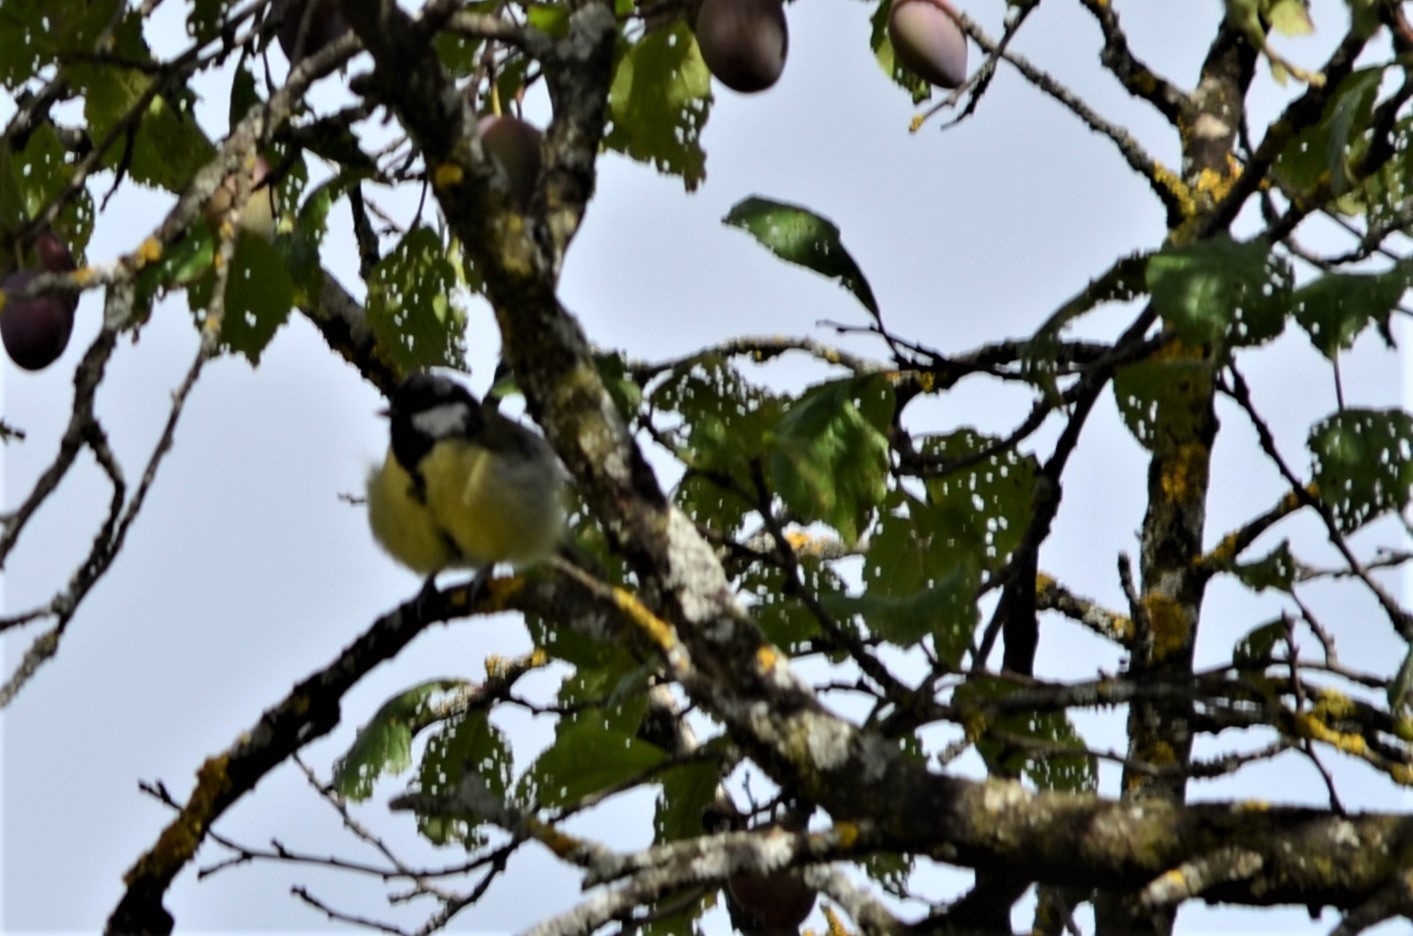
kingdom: Animalia
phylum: Chordata
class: Aves
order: Passeriformes
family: Paridae
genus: Parus
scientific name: Parus major
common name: Great tit
